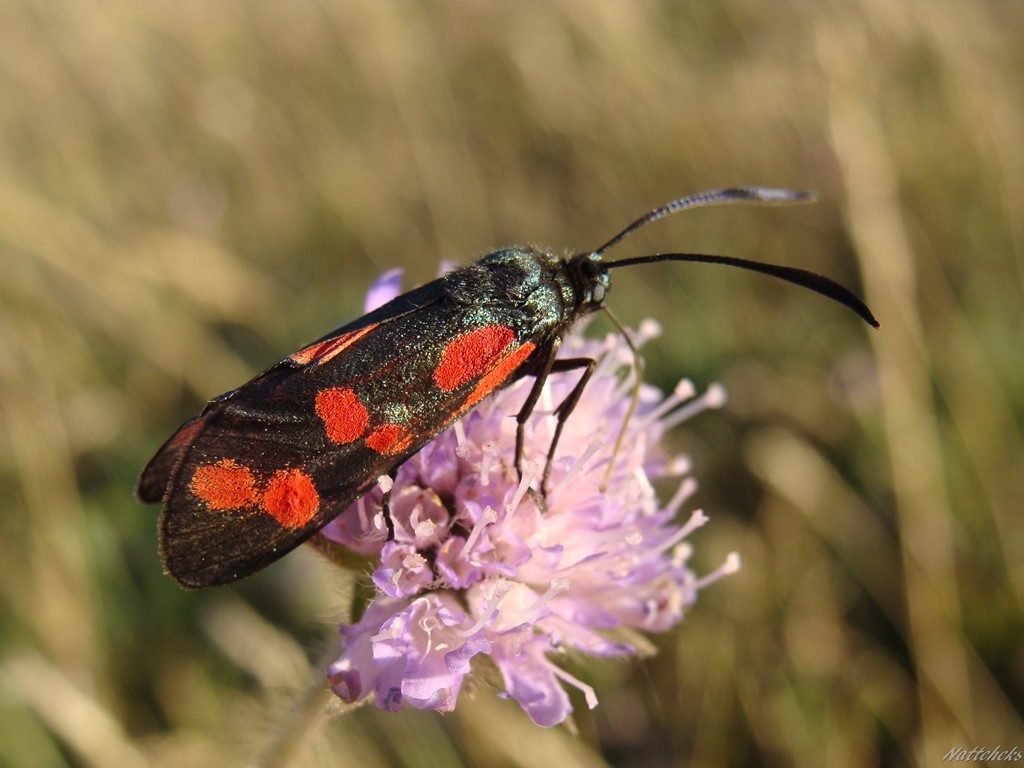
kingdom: Animalia
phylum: Arthropoda
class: Insecta
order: Lepidoptera
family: Zygaenidae
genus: Zygaena
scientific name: Zygaena filipendulae
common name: Six-spot burnet
